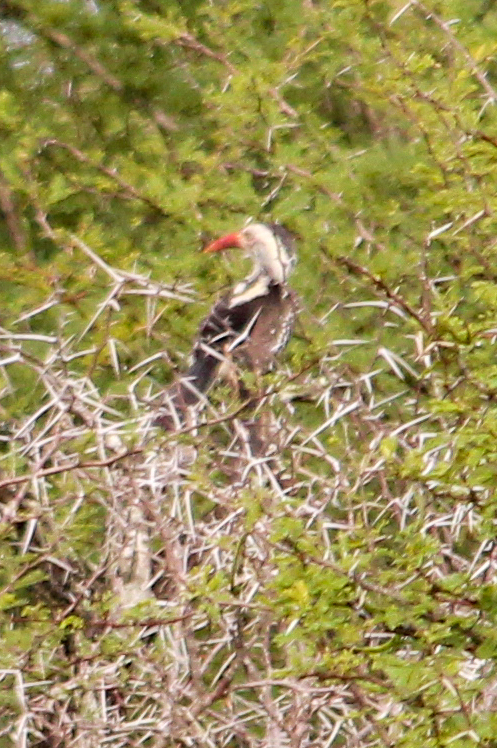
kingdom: Animalia
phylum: Chordata
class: Aves
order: Bucerotiformes
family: Bucerotidae
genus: Tockus
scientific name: Tockus rufirostris
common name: Southern red-billed hornbill
